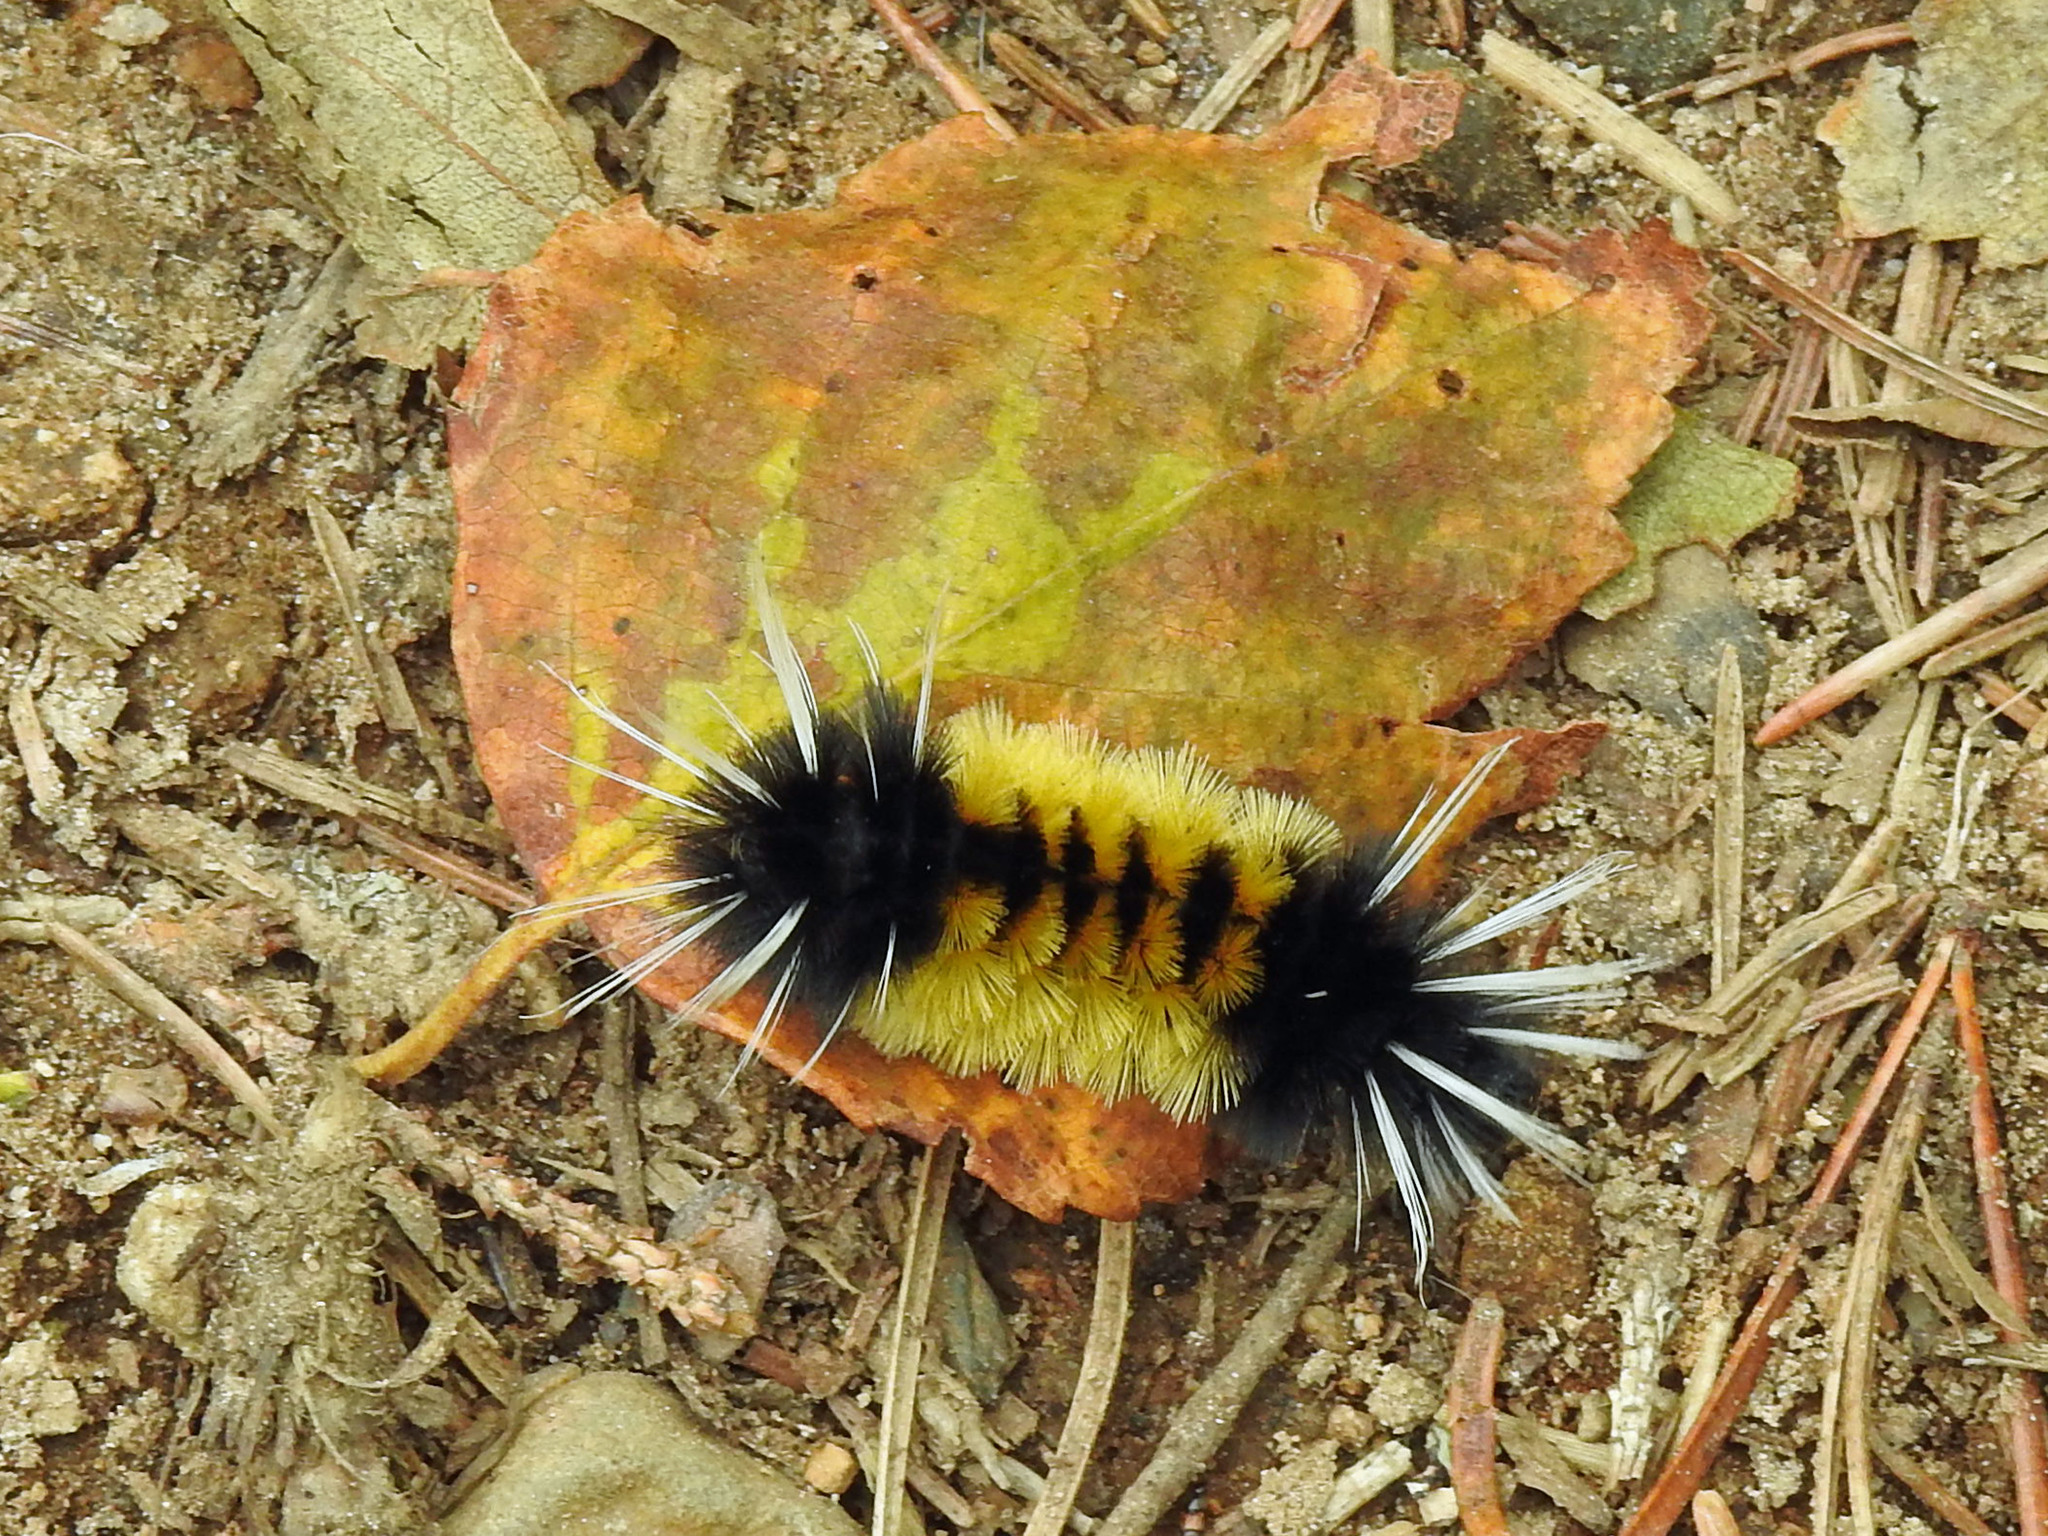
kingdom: Animalia
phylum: Arthropoda
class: Insecta
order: Lepidoptera
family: Erebidae
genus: Lophocampa
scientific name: Lophocampa maculata
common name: Spotted tussock moth
